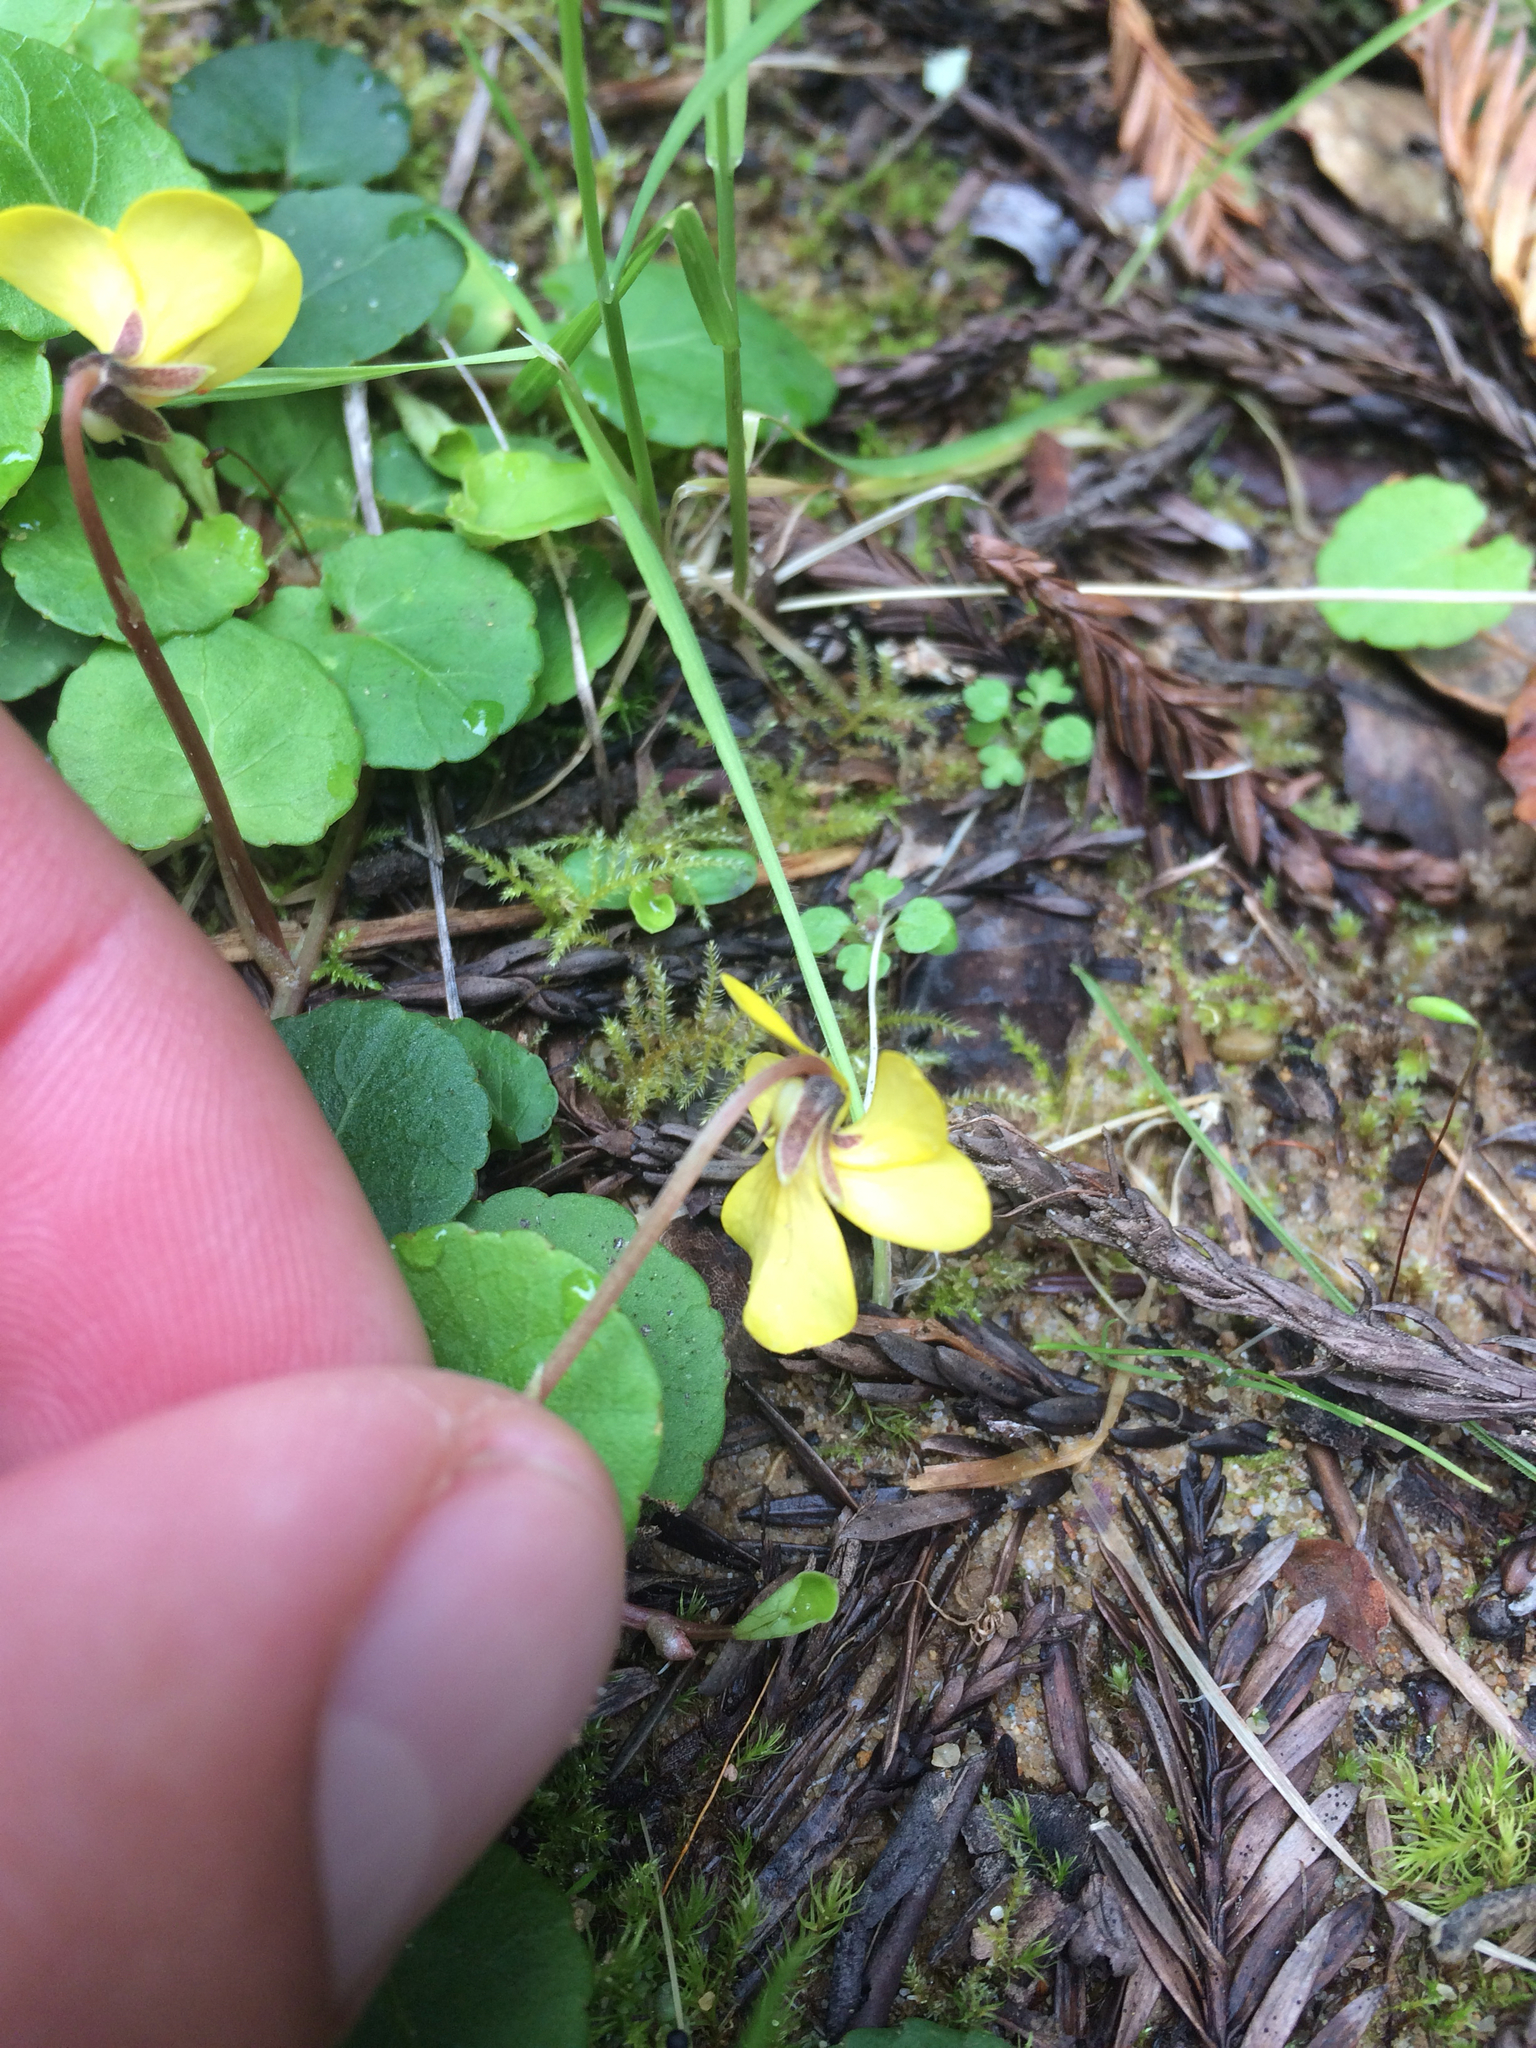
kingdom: Plantae
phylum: Tracheophyta
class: Magnoliopsida
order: Malpighiales
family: Violaceae
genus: Viola
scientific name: Viola sempervirens
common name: Evergreen violet
